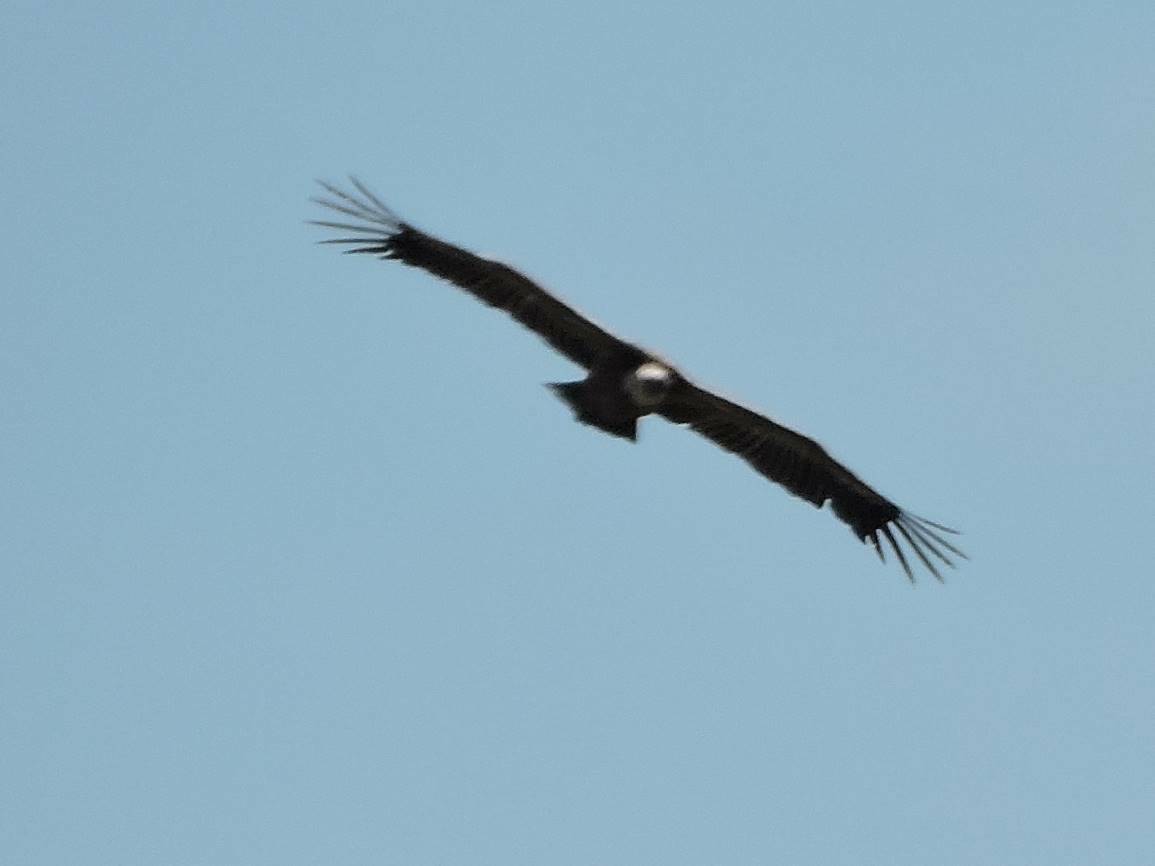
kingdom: Animalia
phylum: Chordata
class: Aves
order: Accipitriformes
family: Accipitridae
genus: Gyps
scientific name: Gyps fulvus
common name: Griffon vulture
